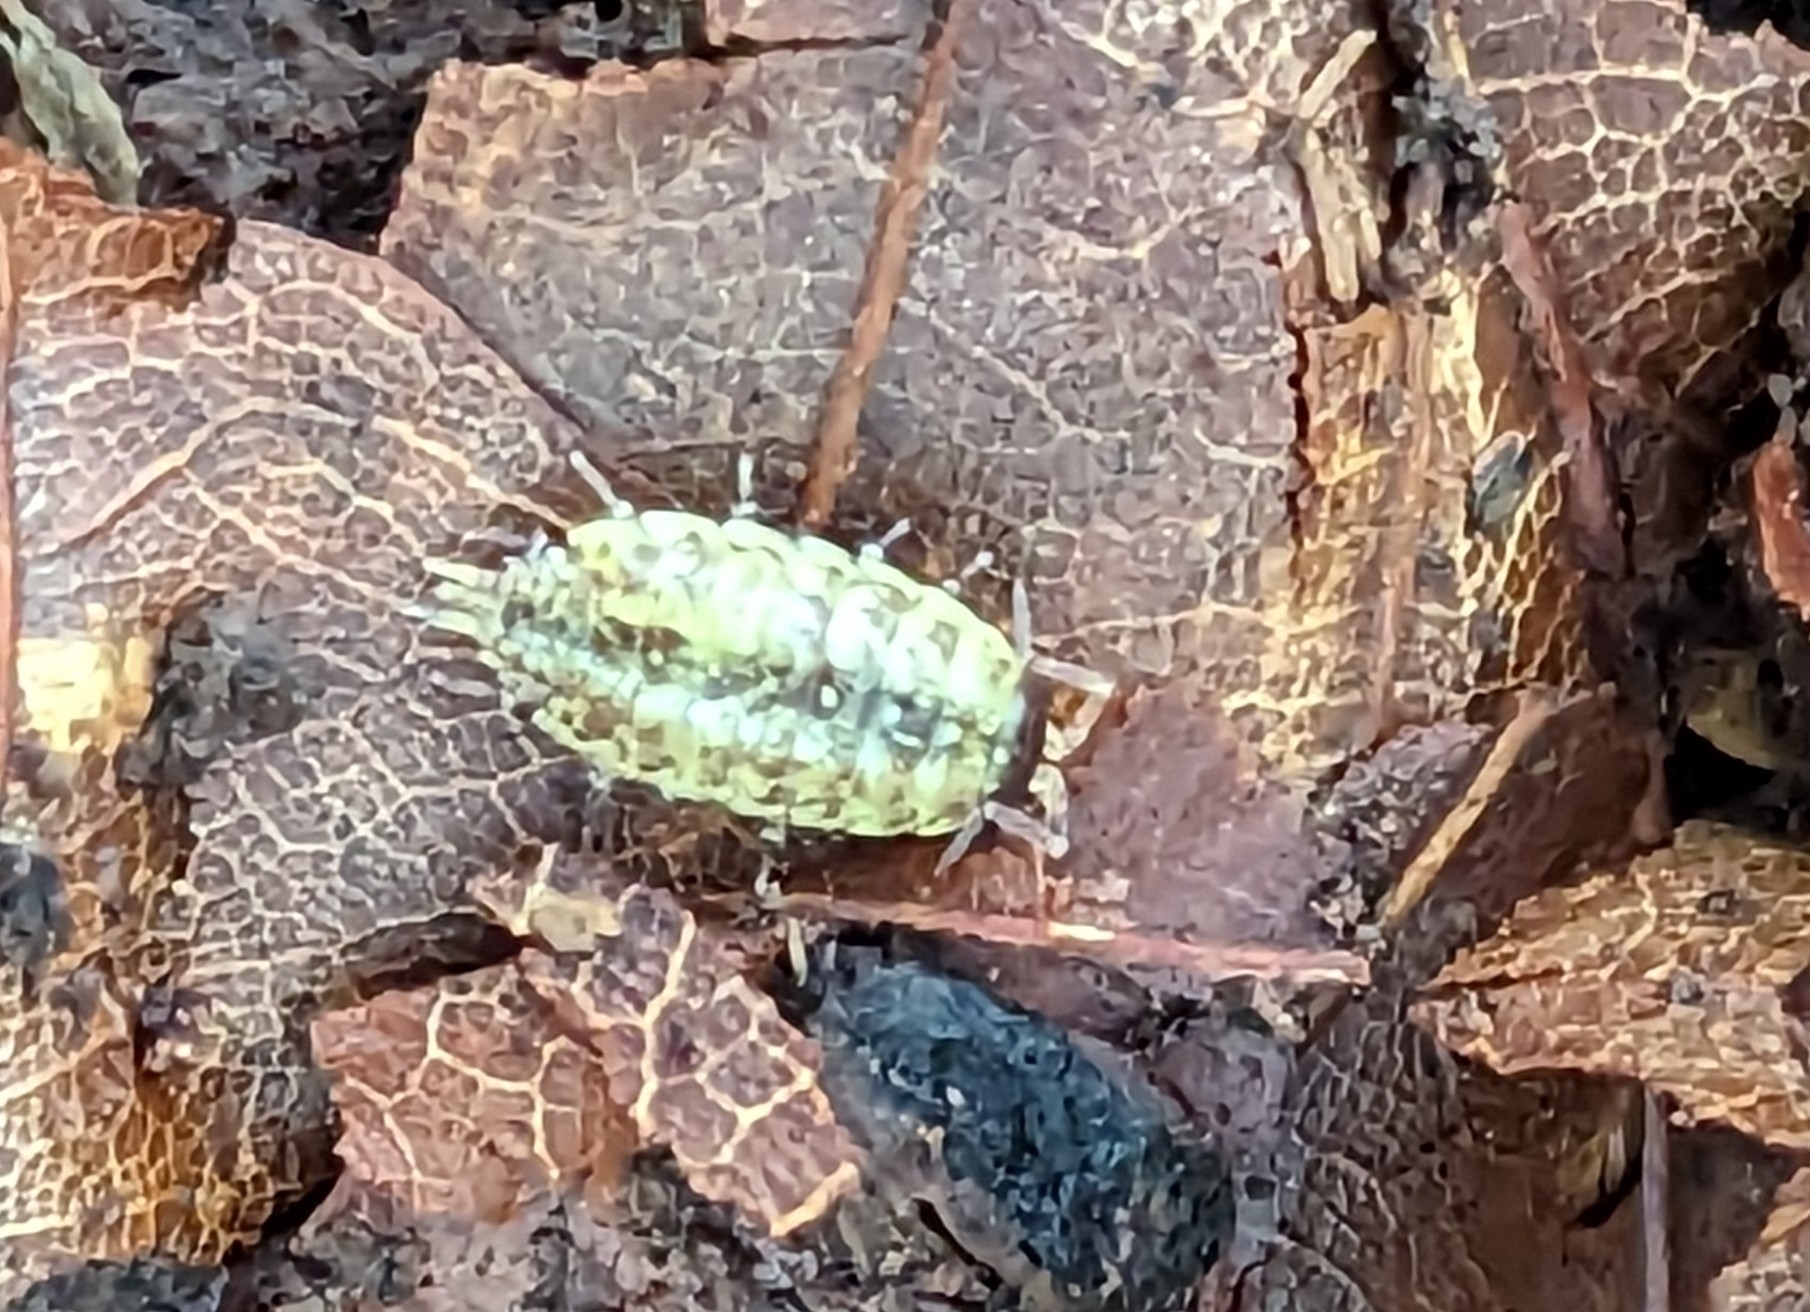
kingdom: Animalia
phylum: Arthropoda
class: Malacostraca
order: Isopoda
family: Philosciidae
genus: Philoscia
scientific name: Philoscia muscorum
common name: Common striped woodlouse
